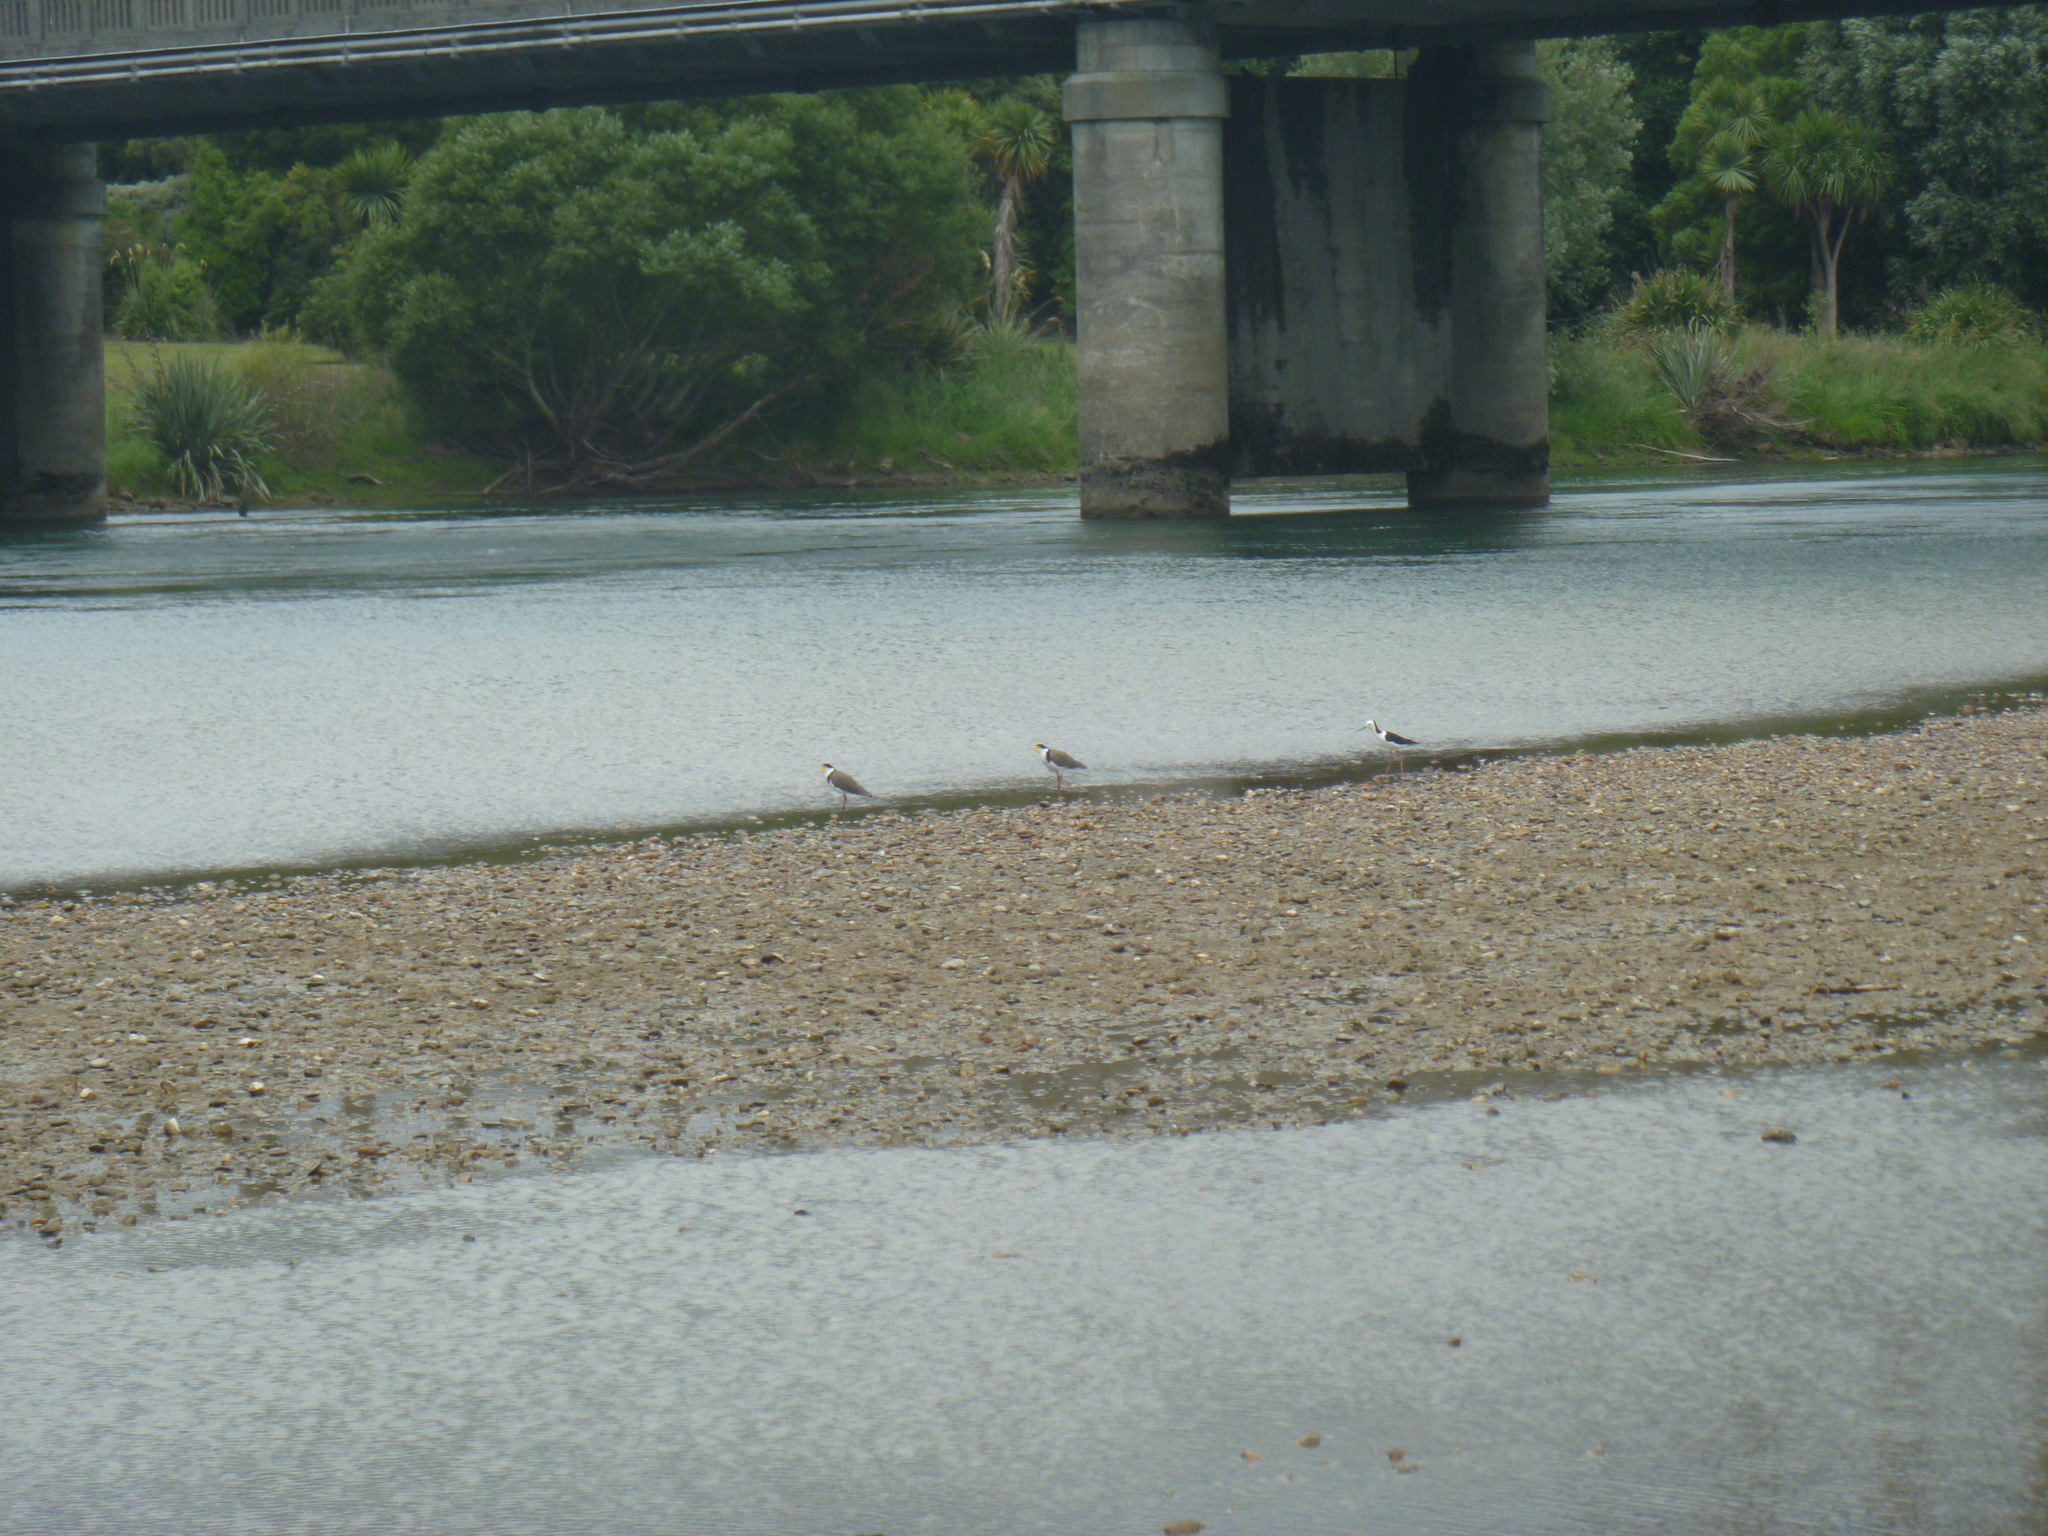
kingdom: Animalia
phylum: Chordata
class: Aves
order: Charadriiformes
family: Recurvirostridae
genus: Himantopus
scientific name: Himantopus leucocephalus
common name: White-headed stilt
